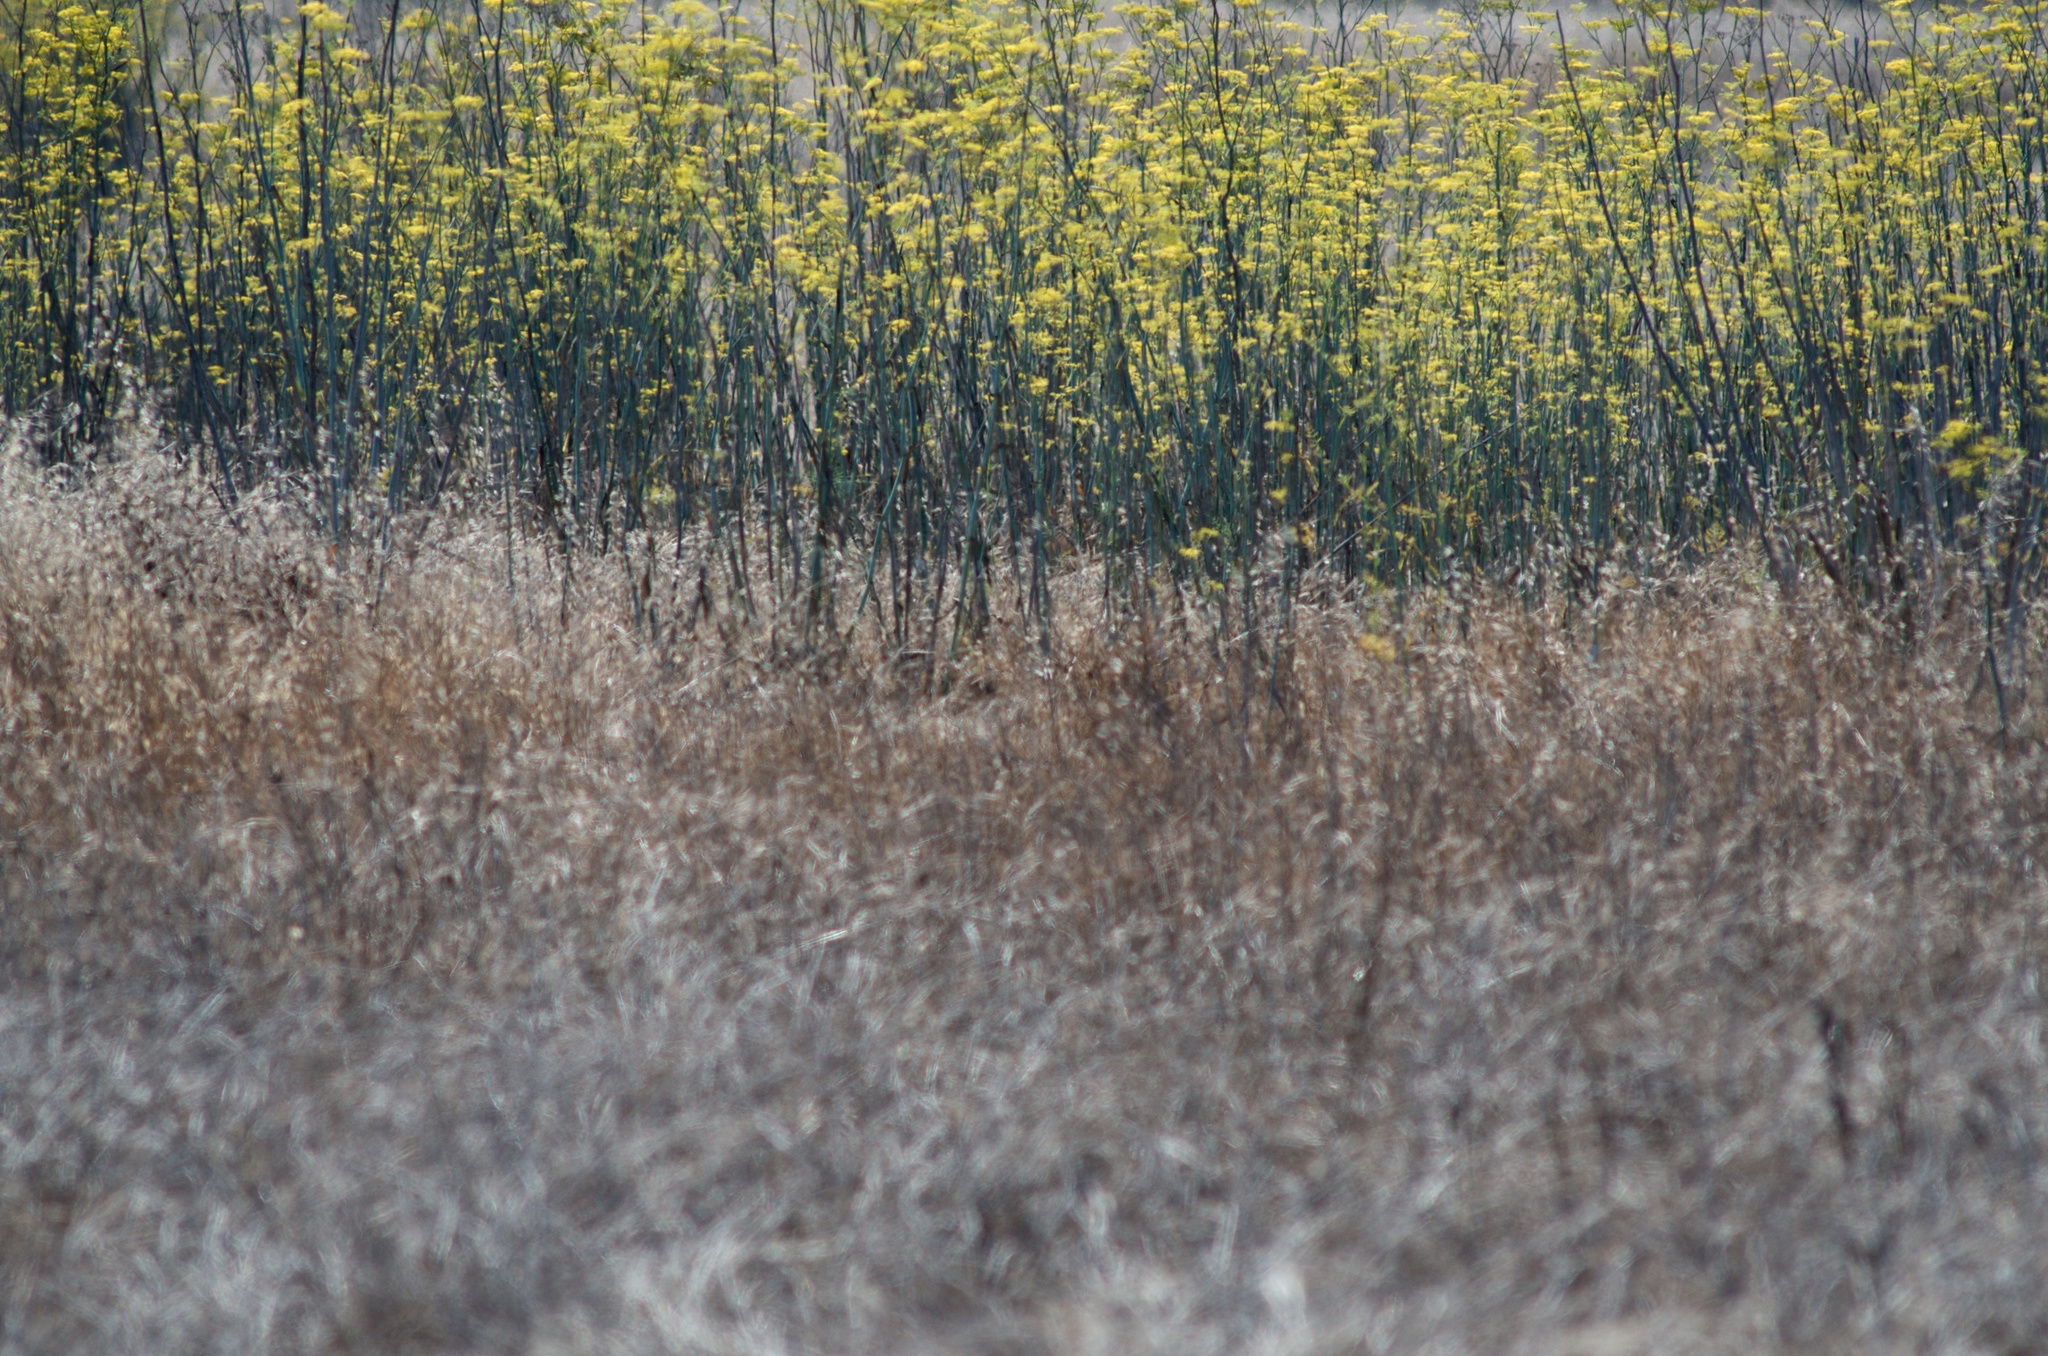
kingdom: Plantae
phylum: Tracheophyta
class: Magnoliopsida
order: Apiales
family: Apiaceae
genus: Foeniculum
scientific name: Foeniculum vulgare
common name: Fennel
